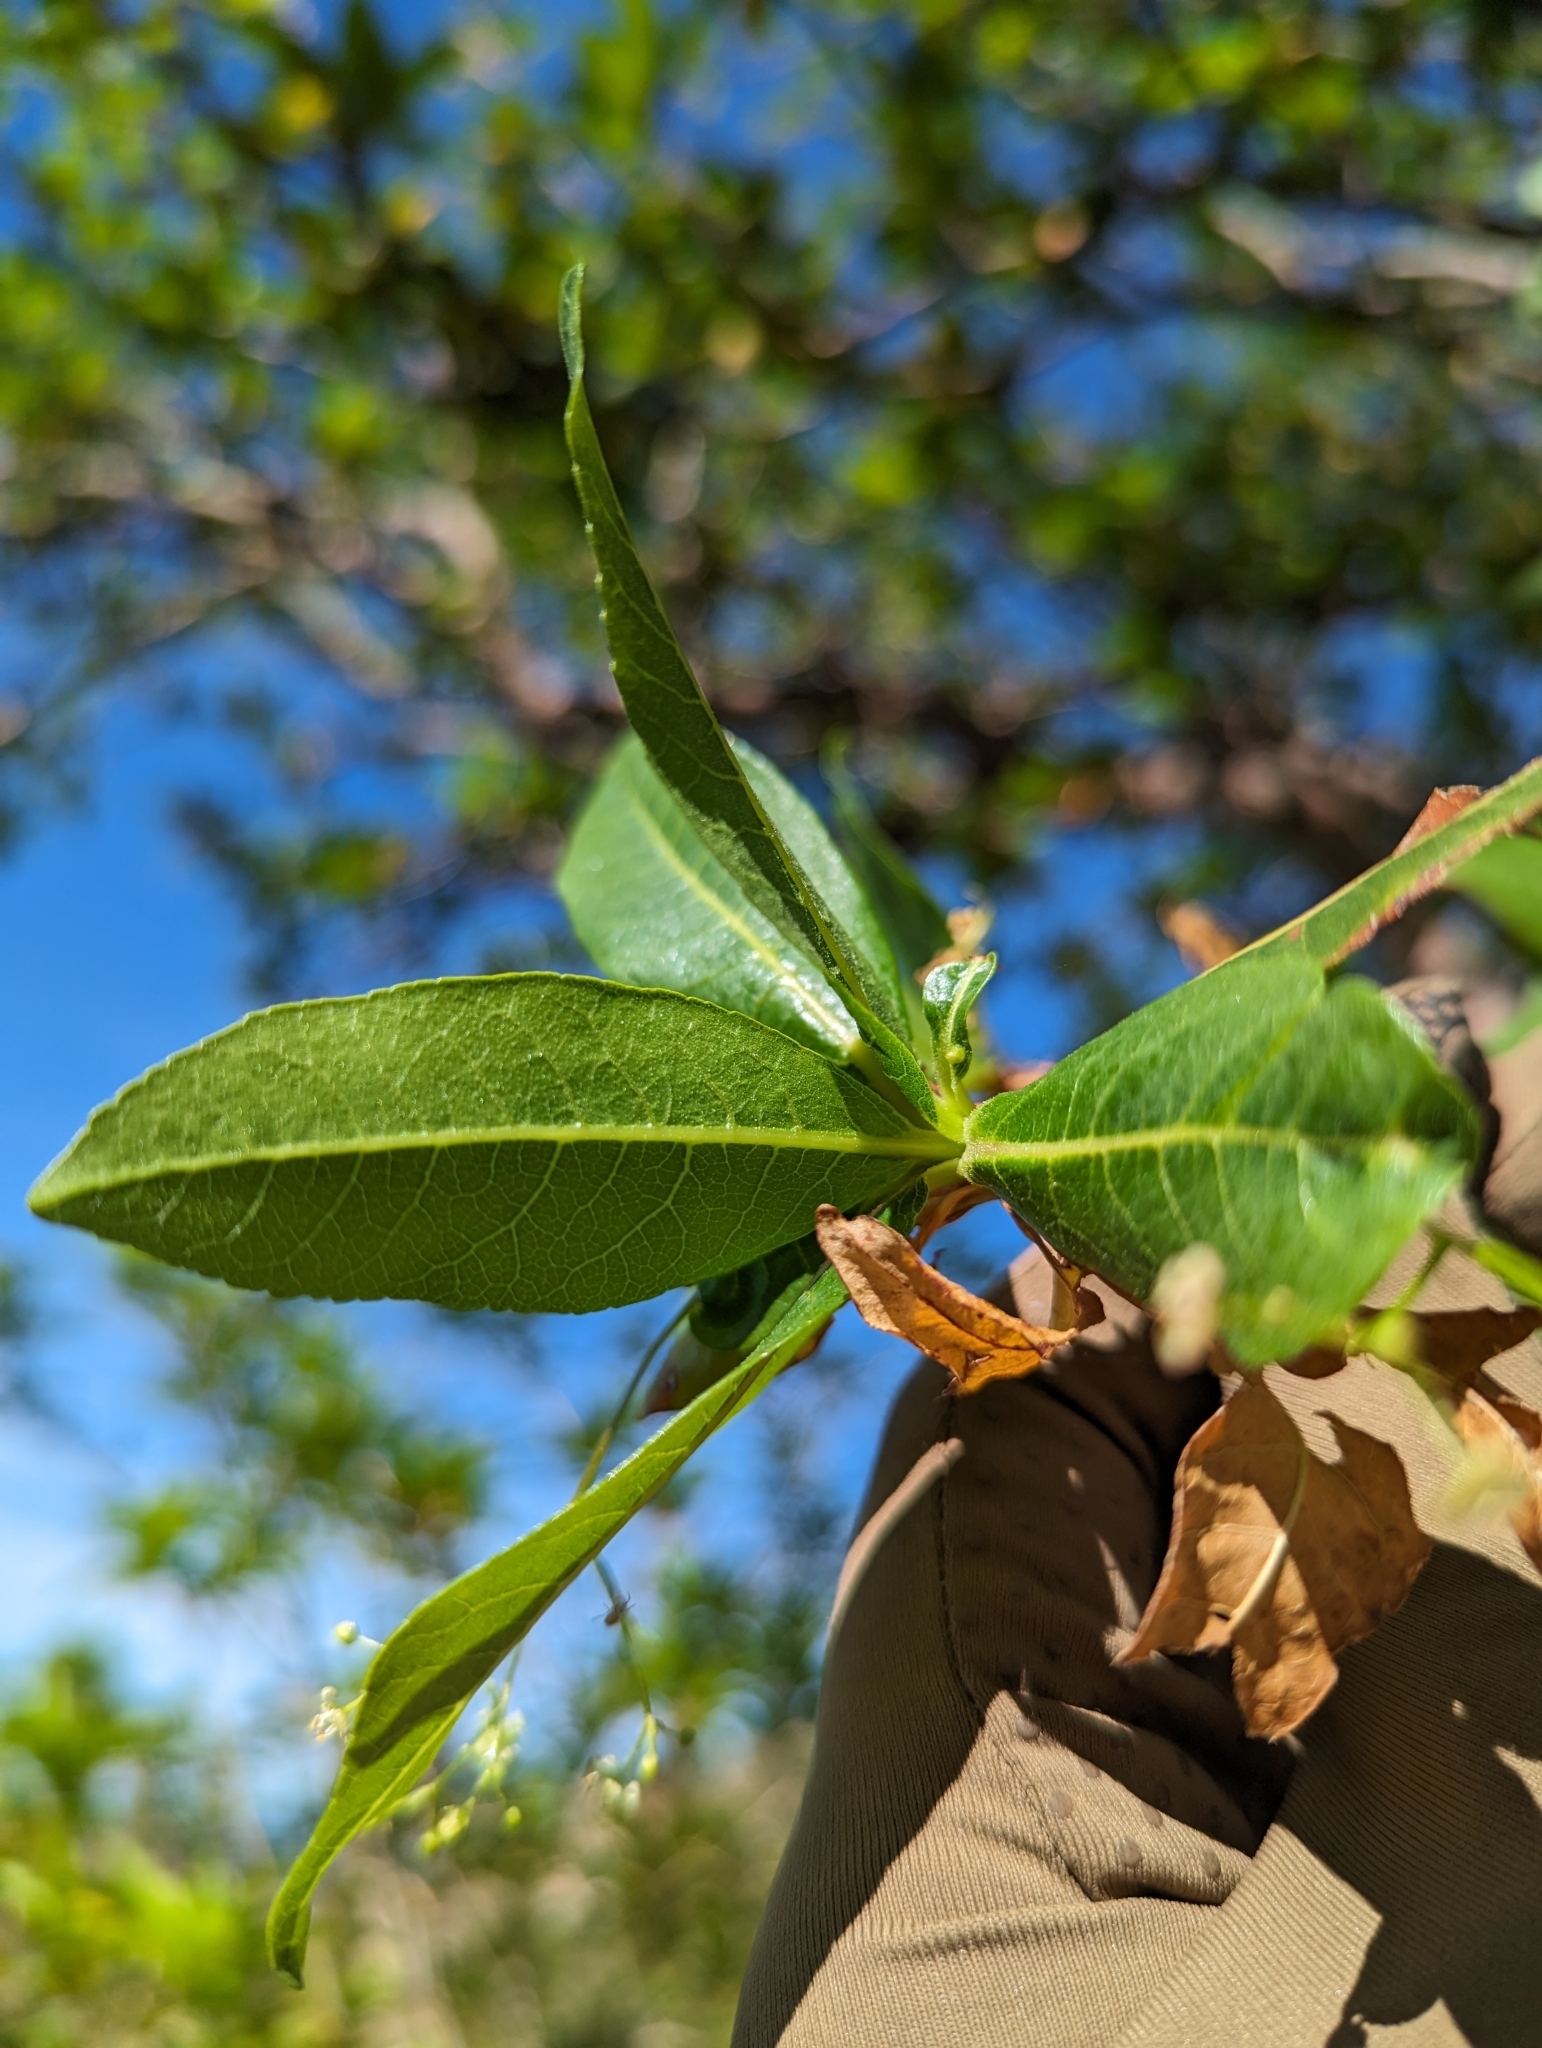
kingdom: Plantae
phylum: Tracheophyta
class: Magnoliopsida
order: Sapindales
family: Burseraceae
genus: Bursera
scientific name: Bursera cerasiifolia
